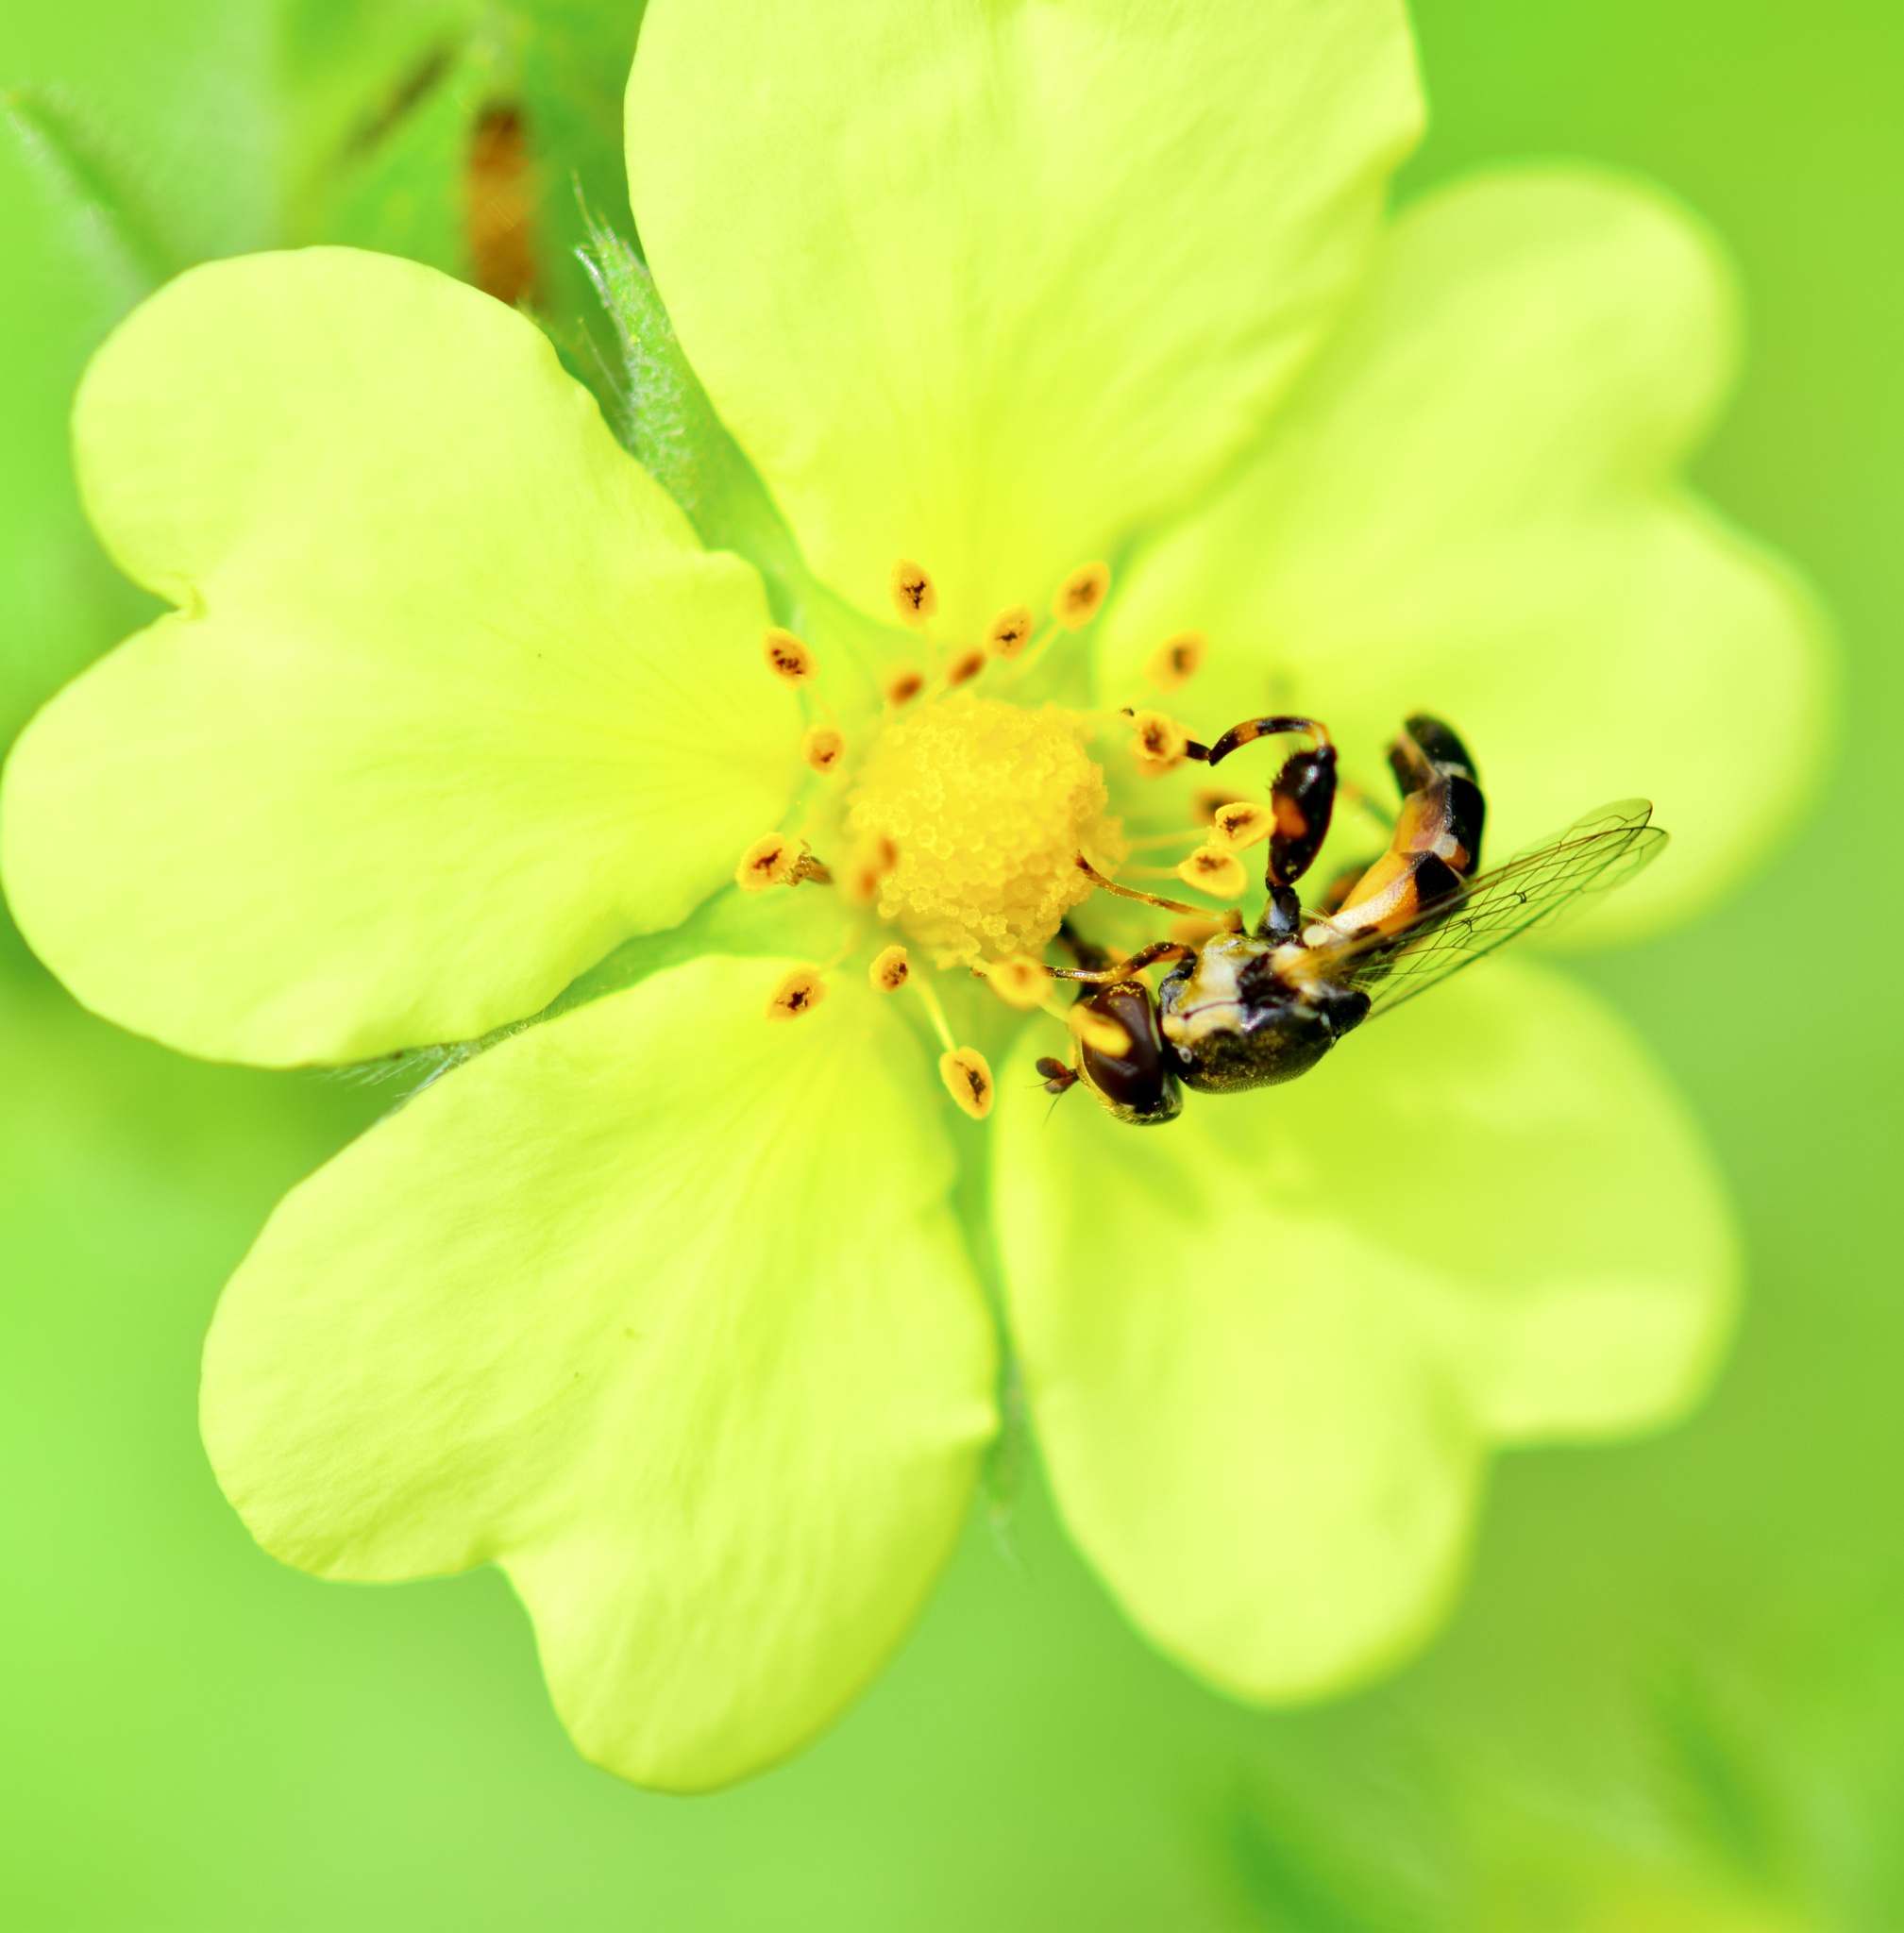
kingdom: Animalia
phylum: Arthropoda
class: Insecta
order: Diptera
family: Syrphidae
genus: Syritta
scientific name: Syritta pipiens
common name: Hover fly
